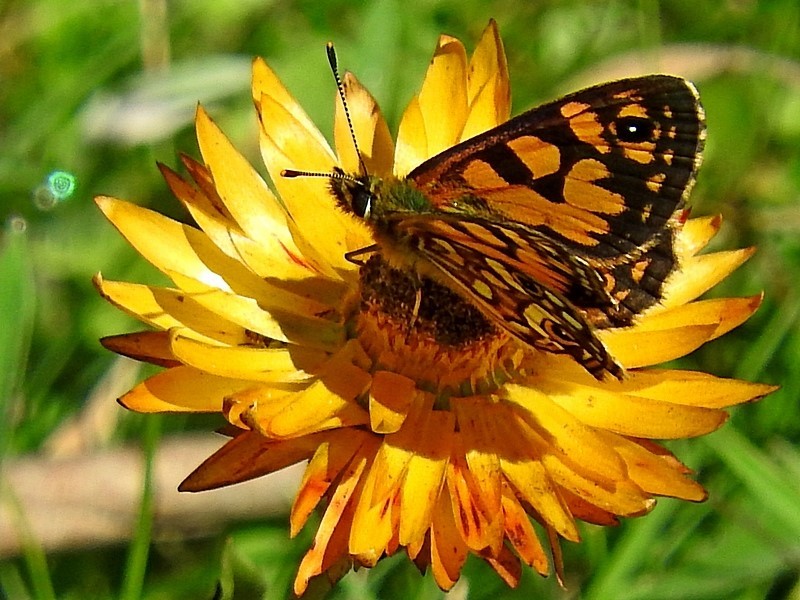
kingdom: Animalia
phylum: Arthropoda
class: Insecta
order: Lepidoptera
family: Nymphalidae
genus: Oreixenica
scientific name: Oreixenica lathoniella
